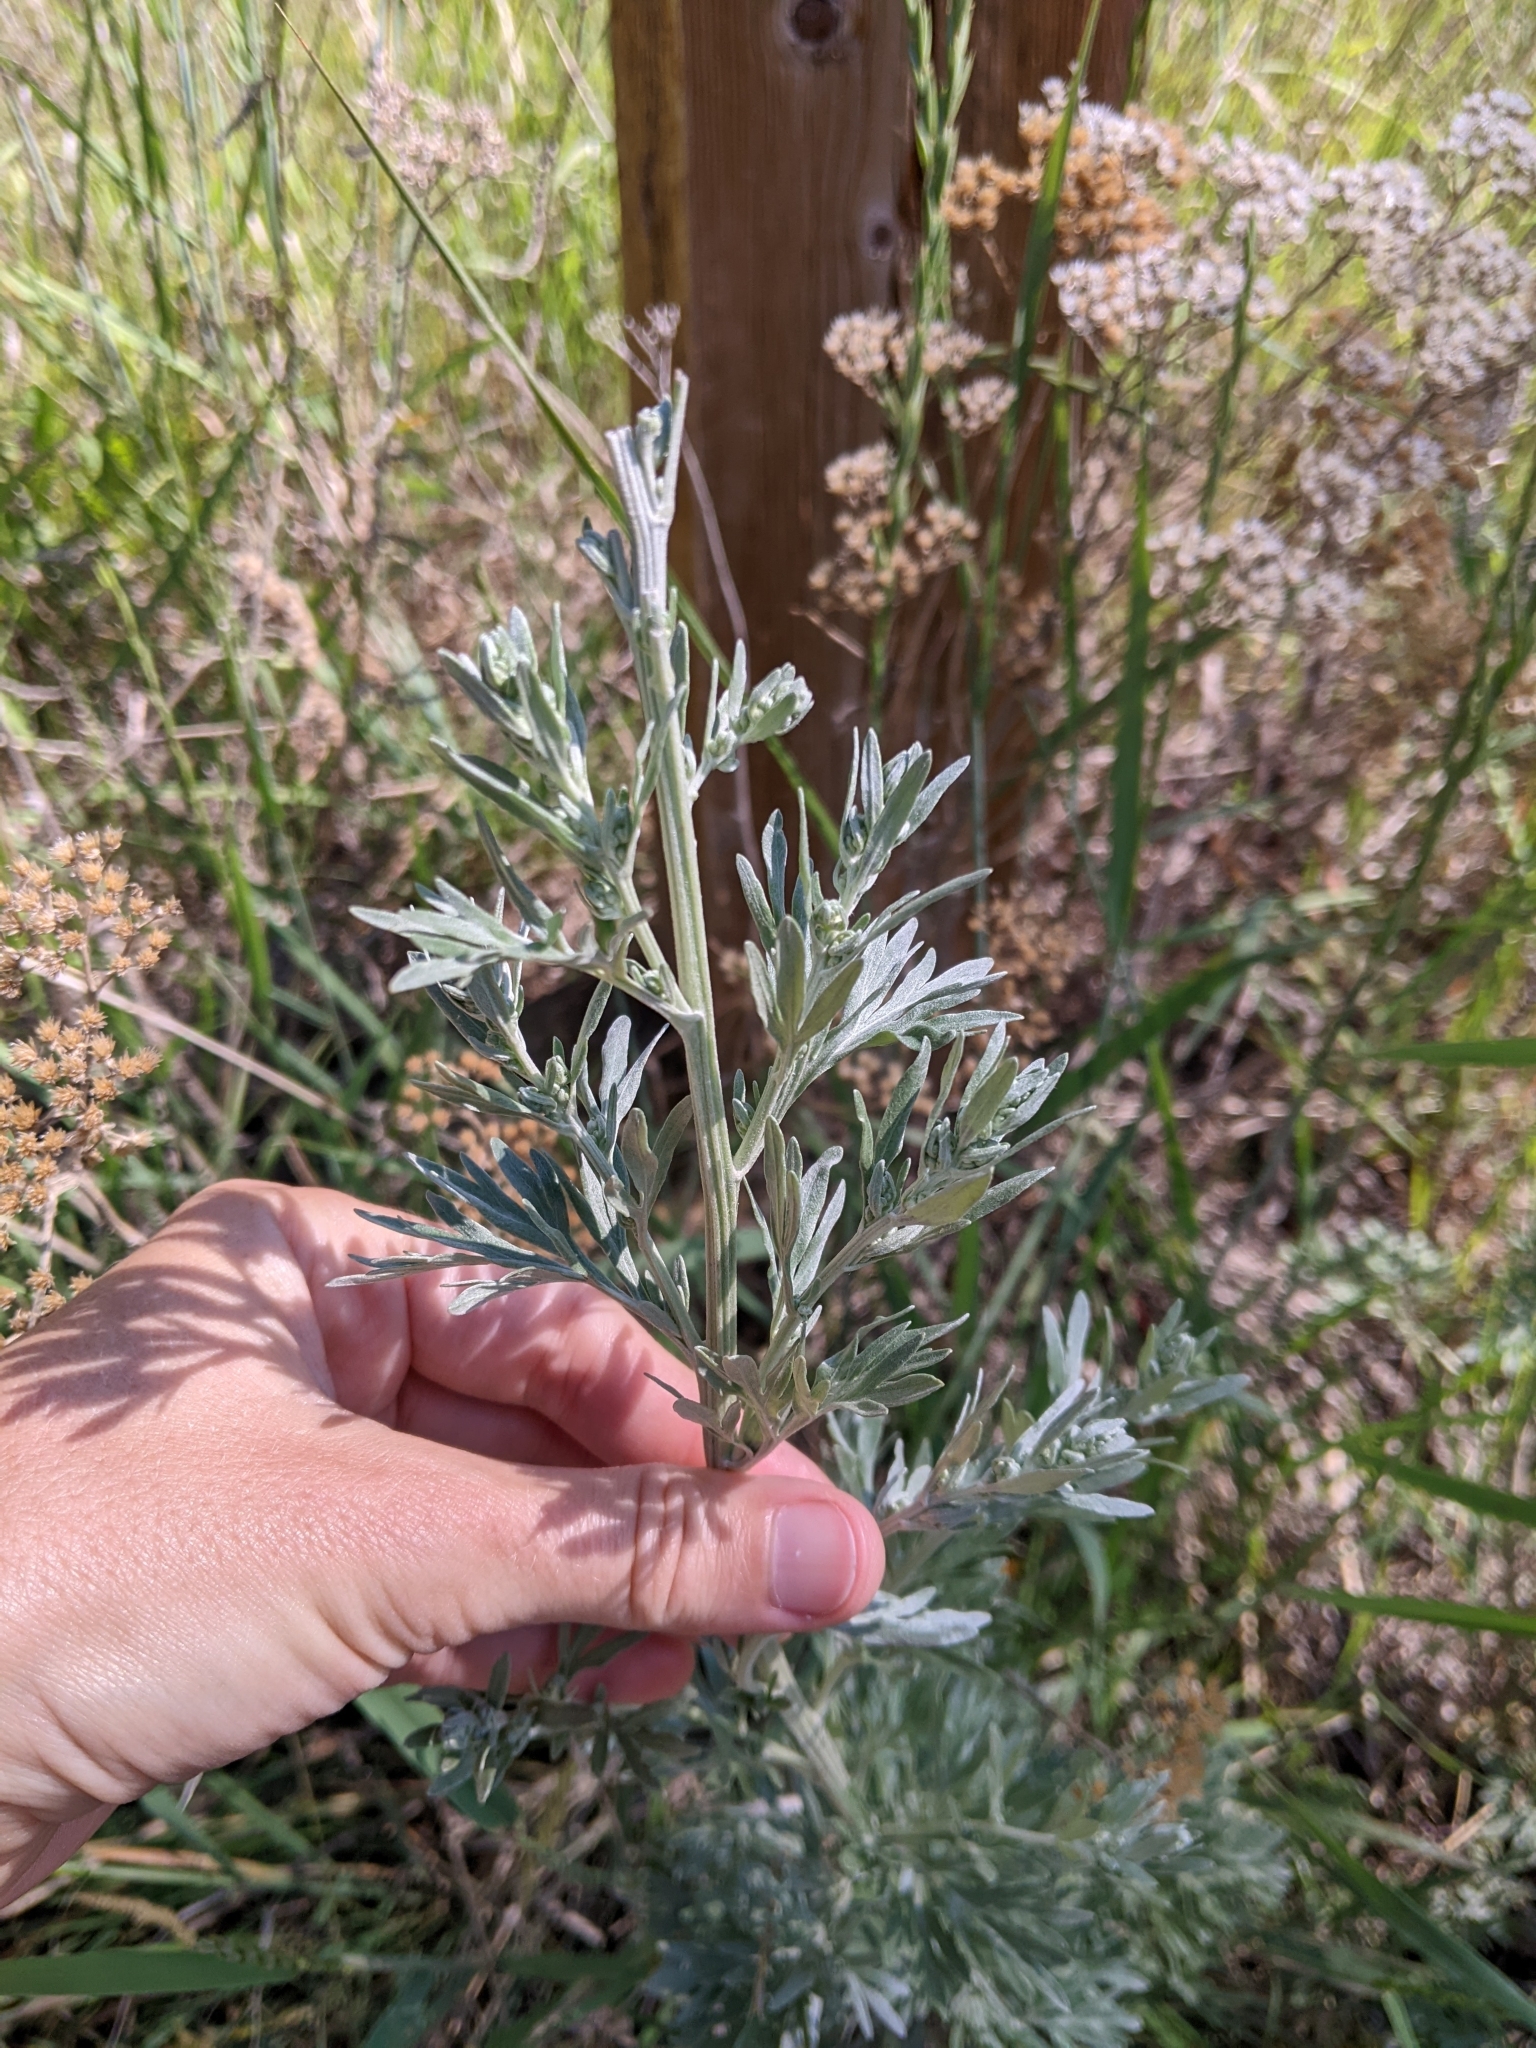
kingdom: Plantae
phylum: Tracheophyta
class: Magnoliopsida
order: Asterales
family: Asteraceae
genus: Artemisia
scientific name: Artemisia absinthium
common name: Wormwood
